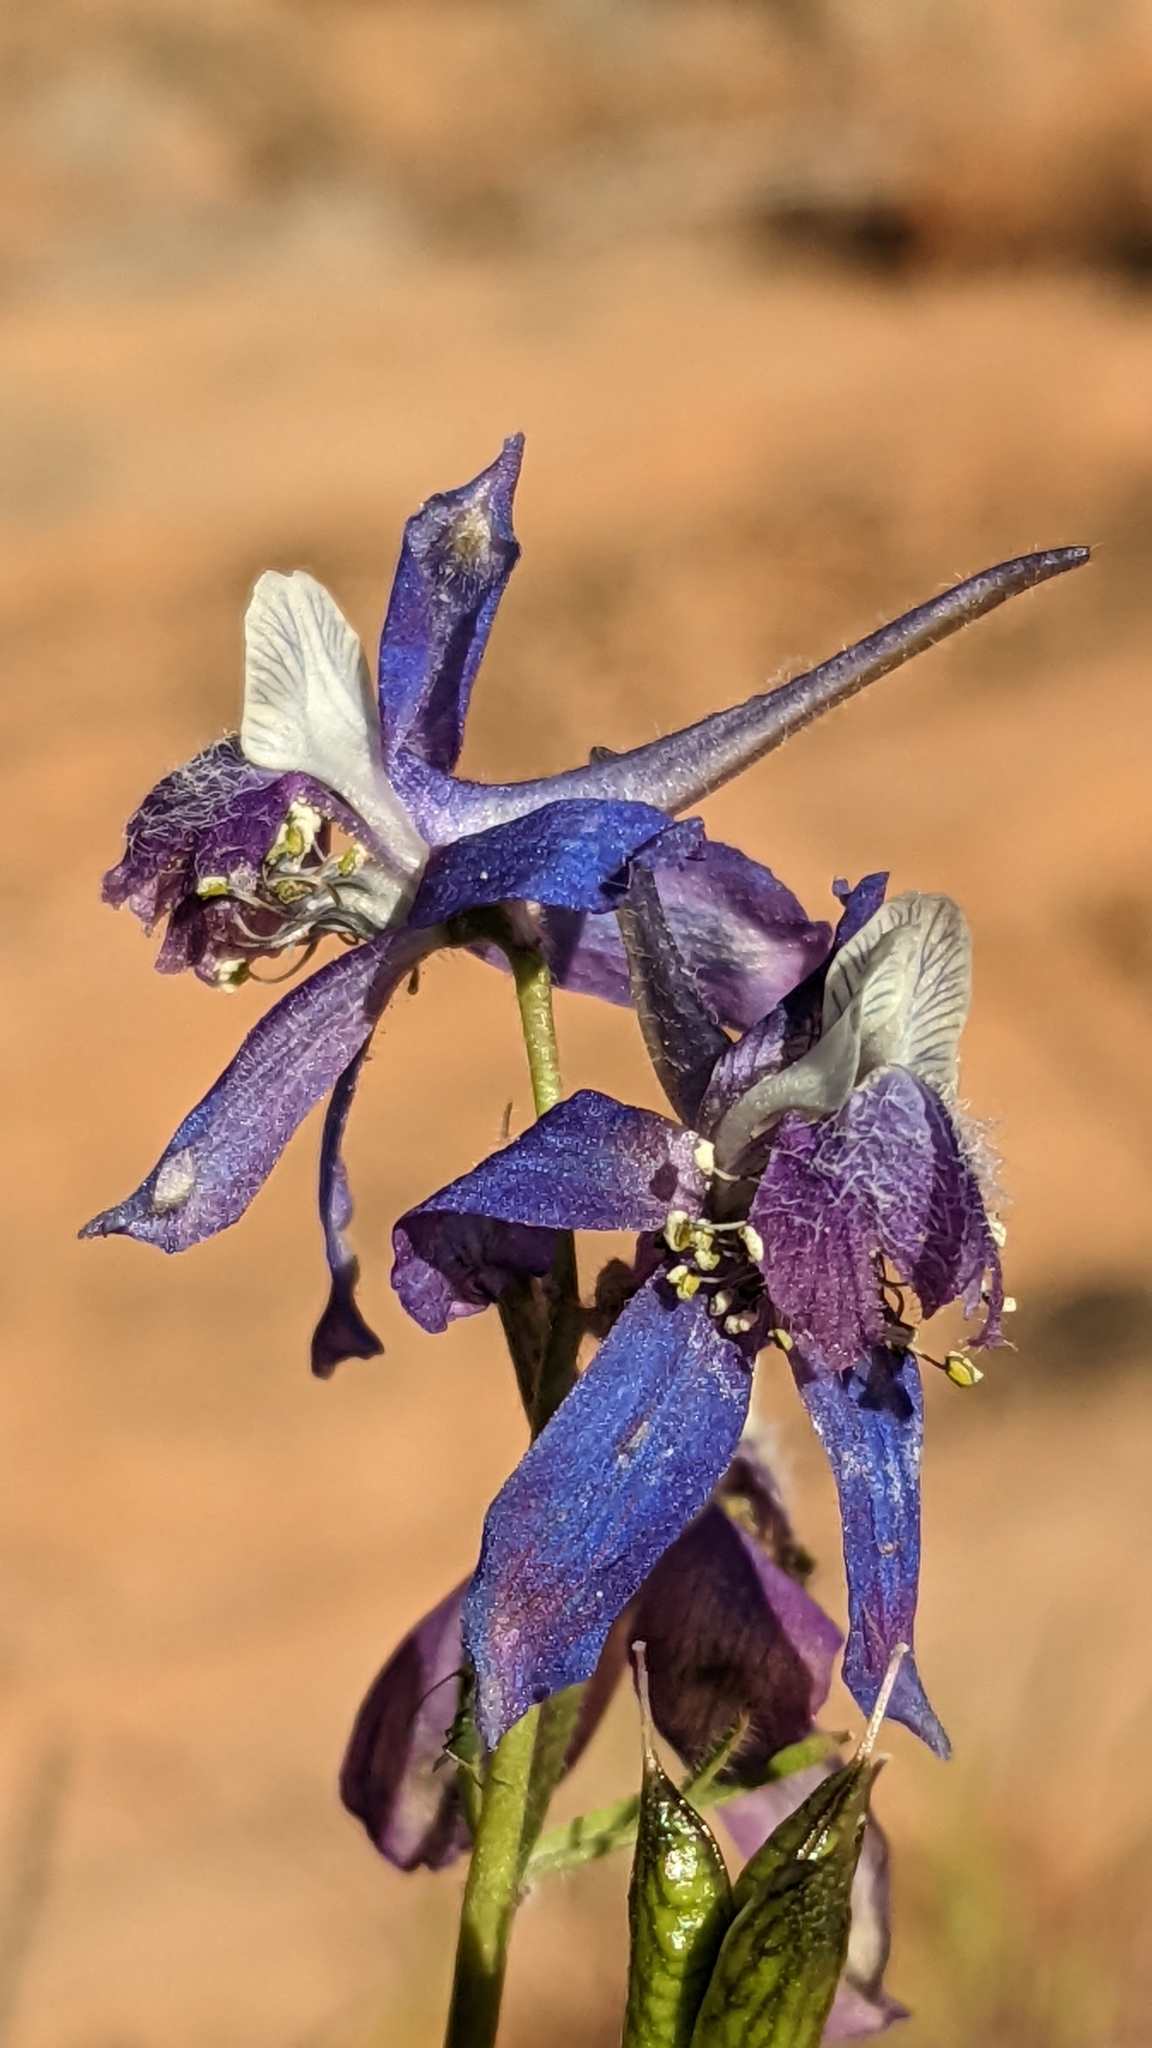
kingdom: Plantae
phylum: Tracheophyta
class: Magnoliopsida
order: Ranunculales
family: Ranunculaceae
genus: Delphinium
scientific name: Delphinium nuttallianum
